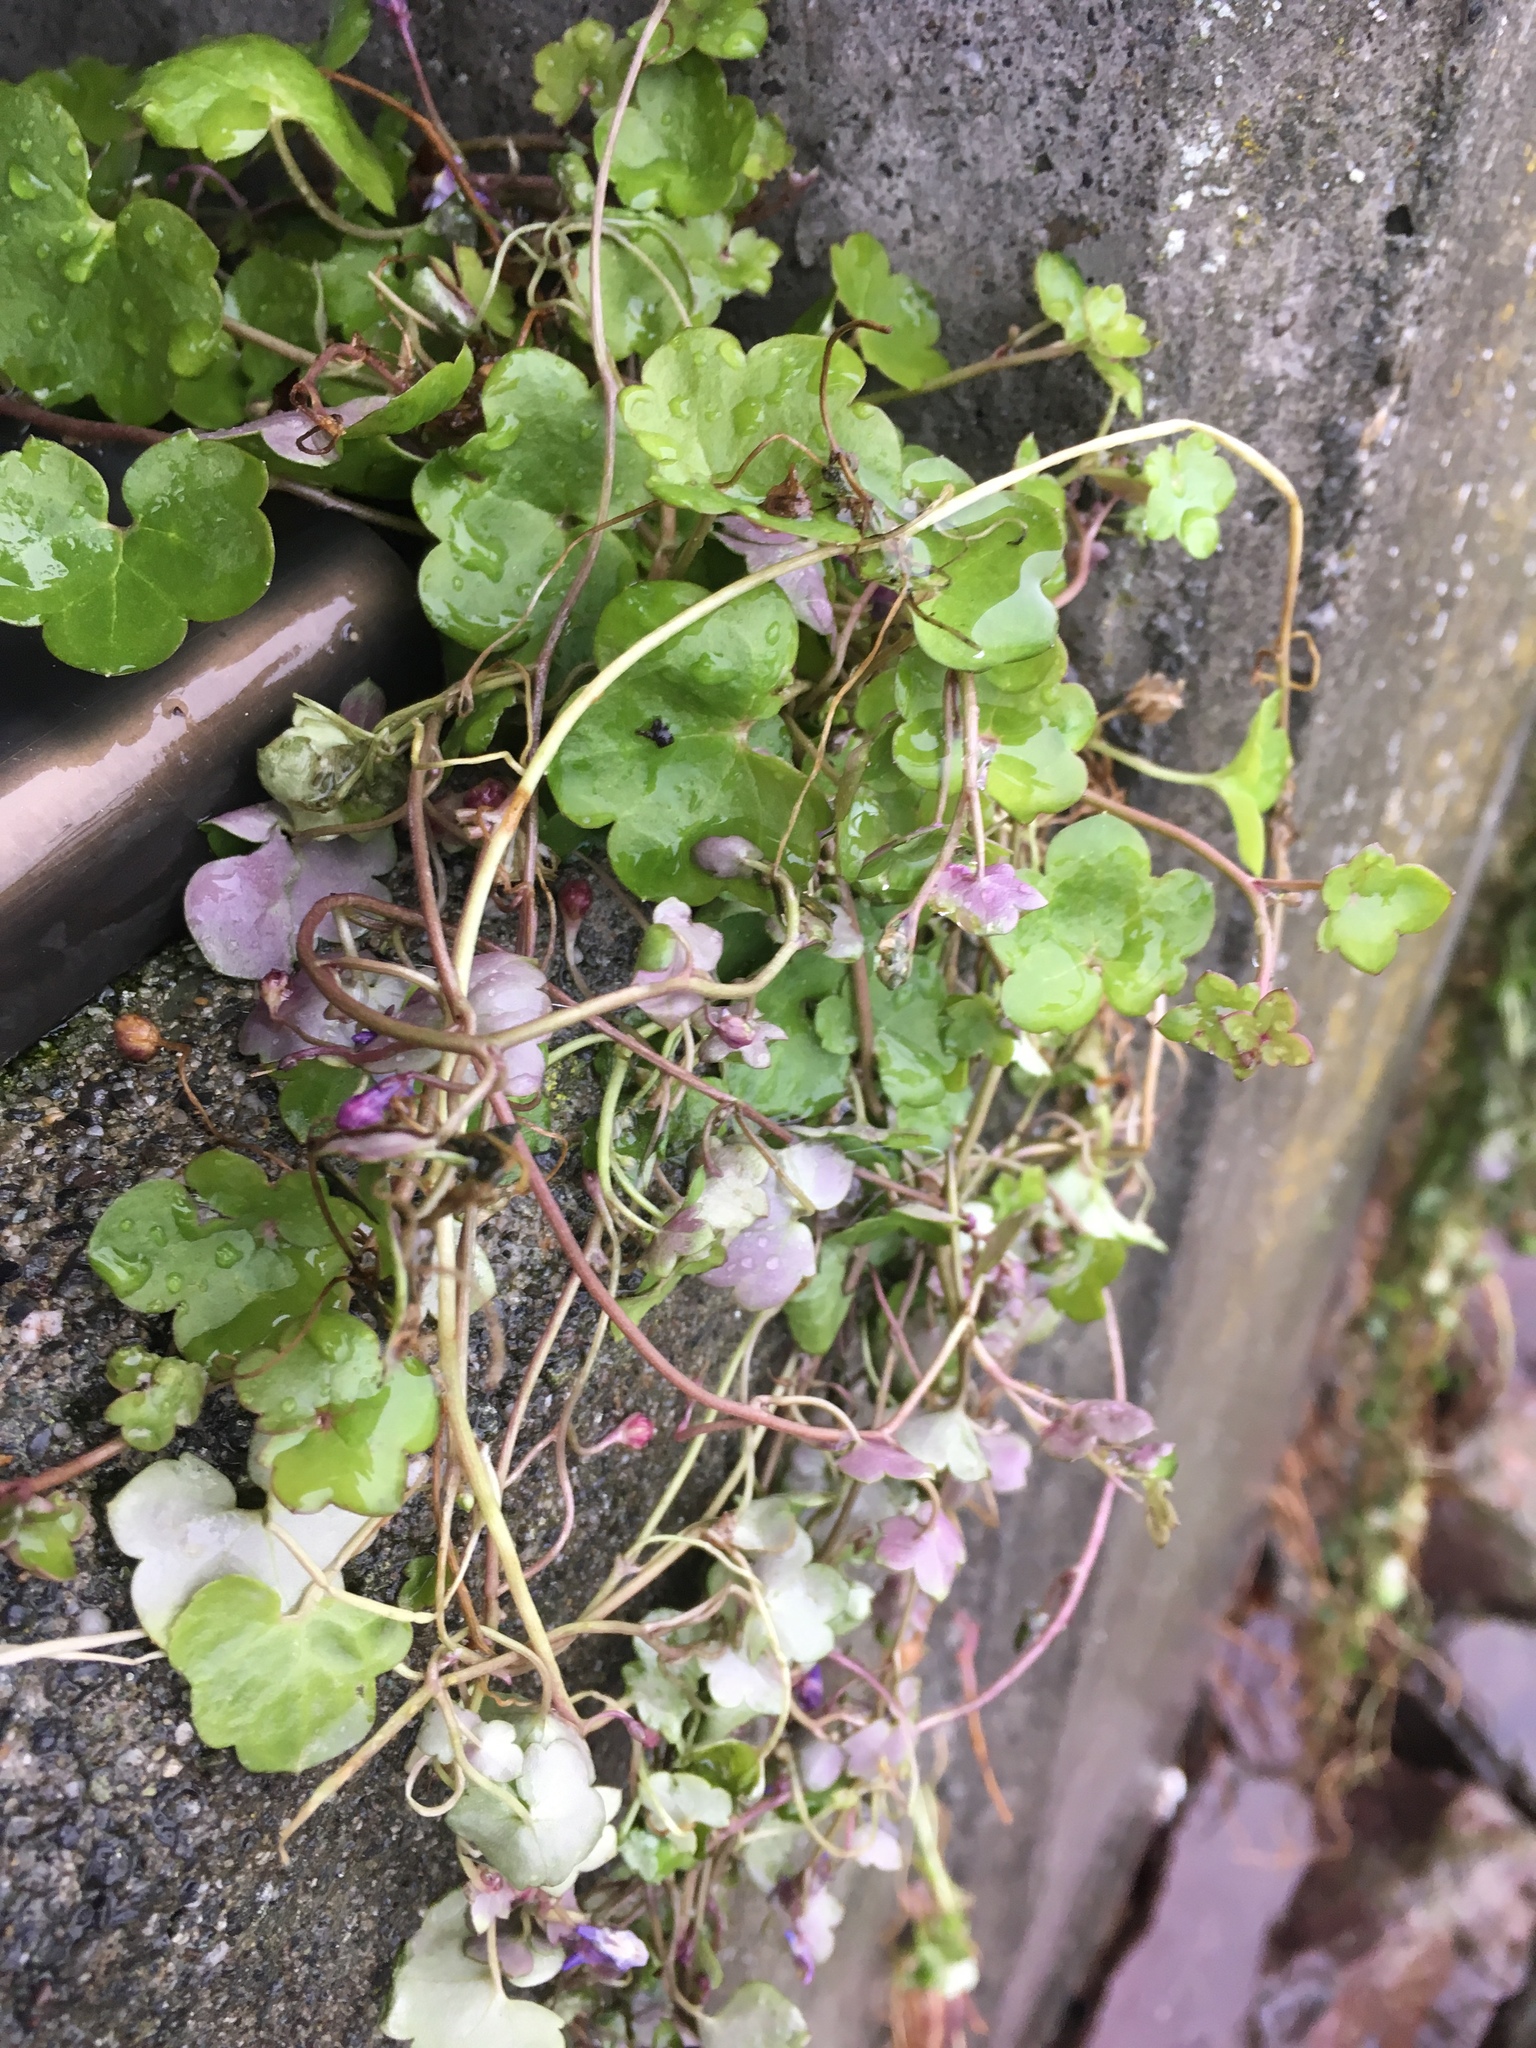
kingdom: Plantae
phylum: Tracheophyta
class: Magnoliopsida
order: Lamiales
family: Plantaginaceae
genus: Cymbalaria
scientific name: Cymbalaria muralis
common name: Ivy-leaved toadflax
